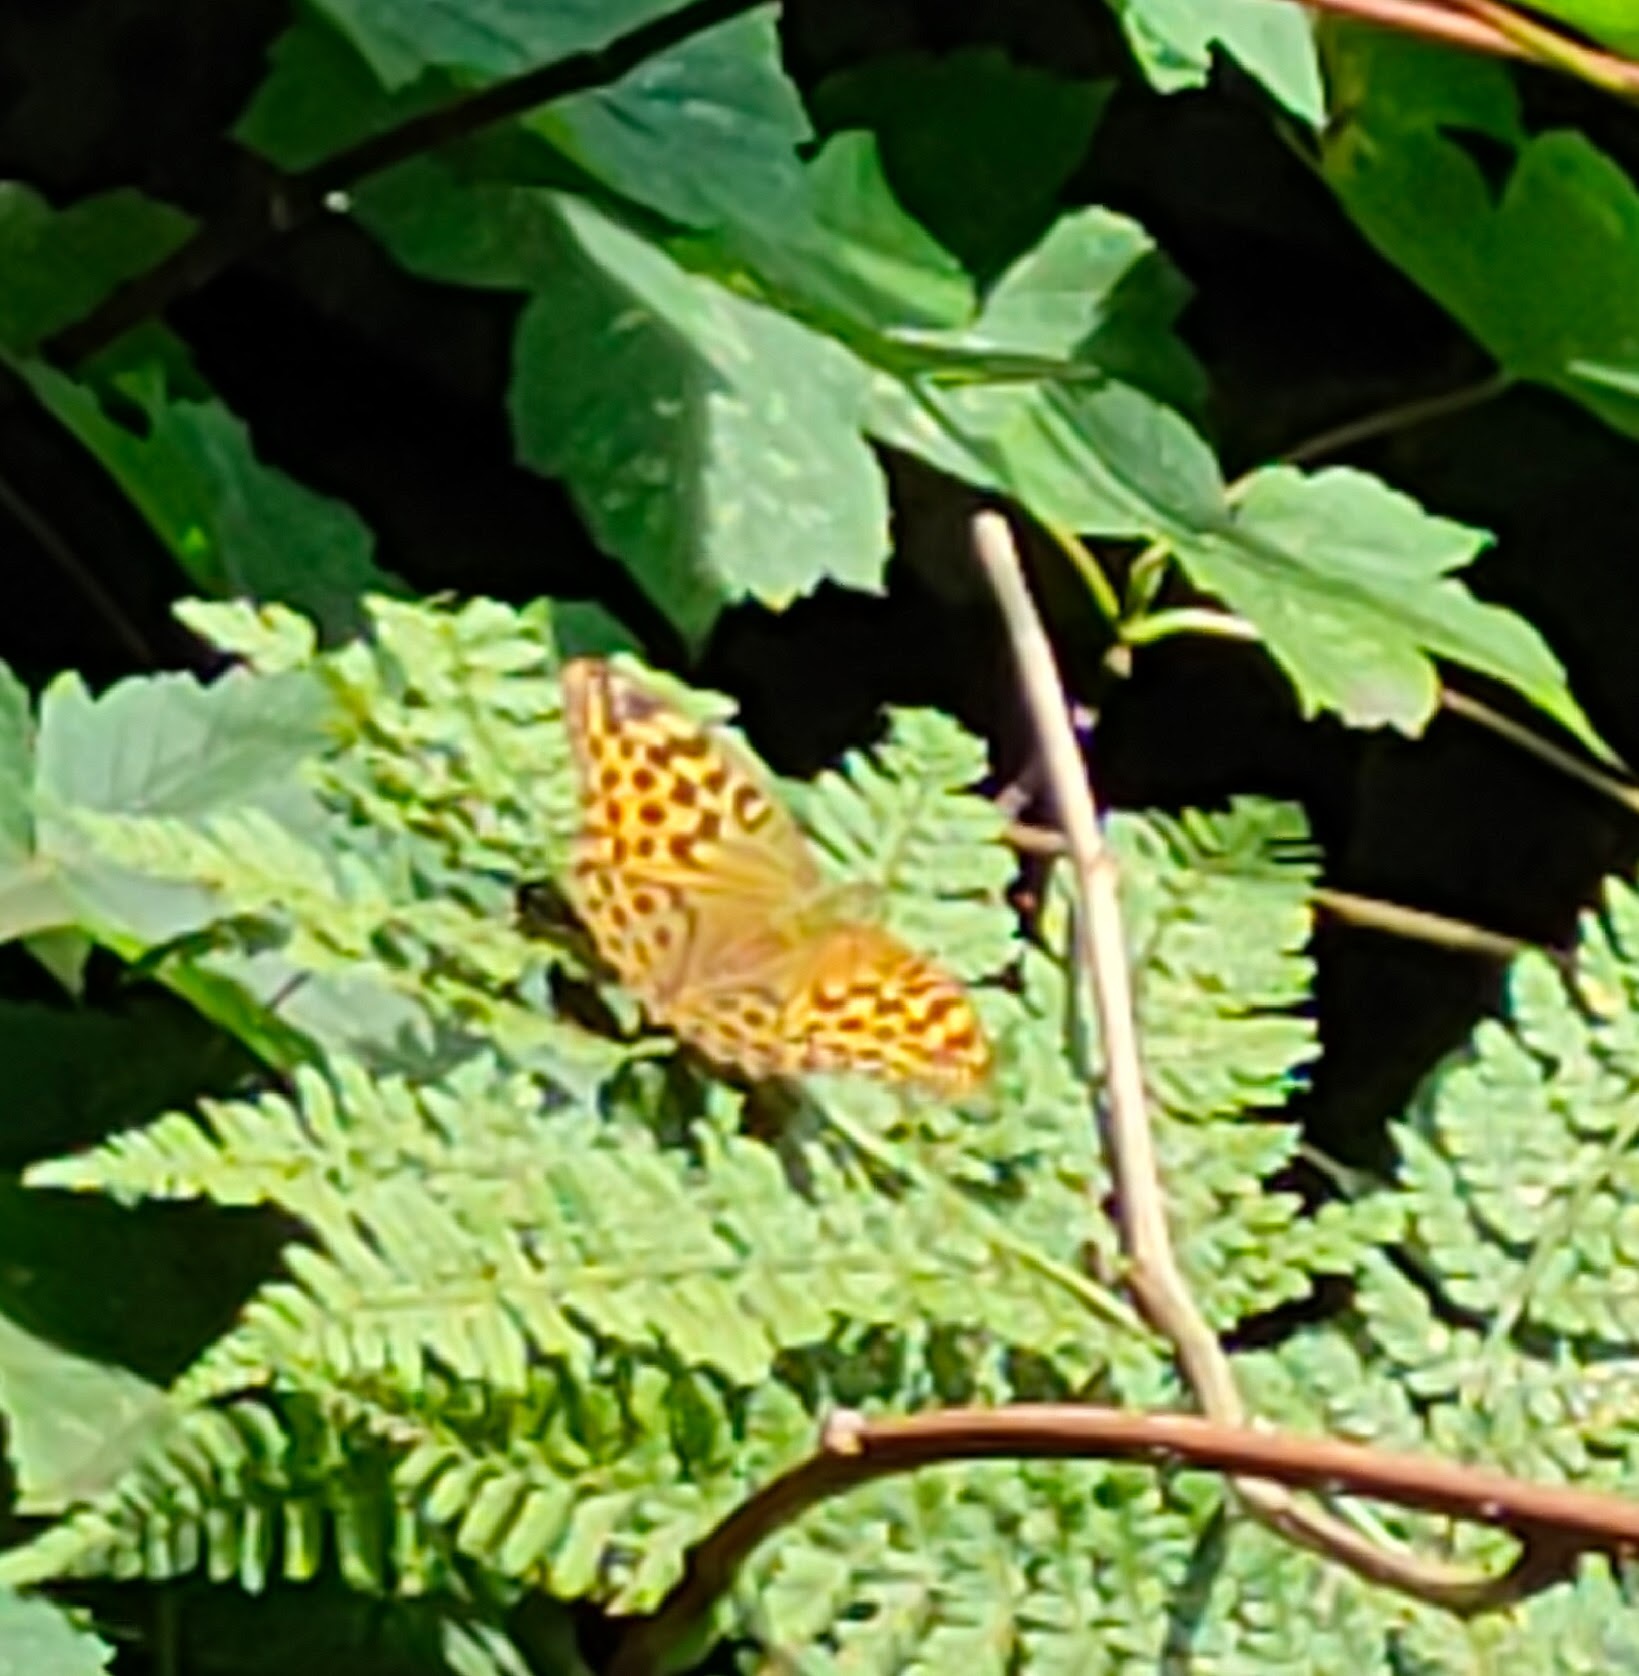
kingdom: Animalia
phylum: Arthropoda
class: Insecta
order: Lepidoptera
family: Nymphalidae
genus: Argynnis
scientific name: Argynnis paphia
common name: Silver-washed fritillary
